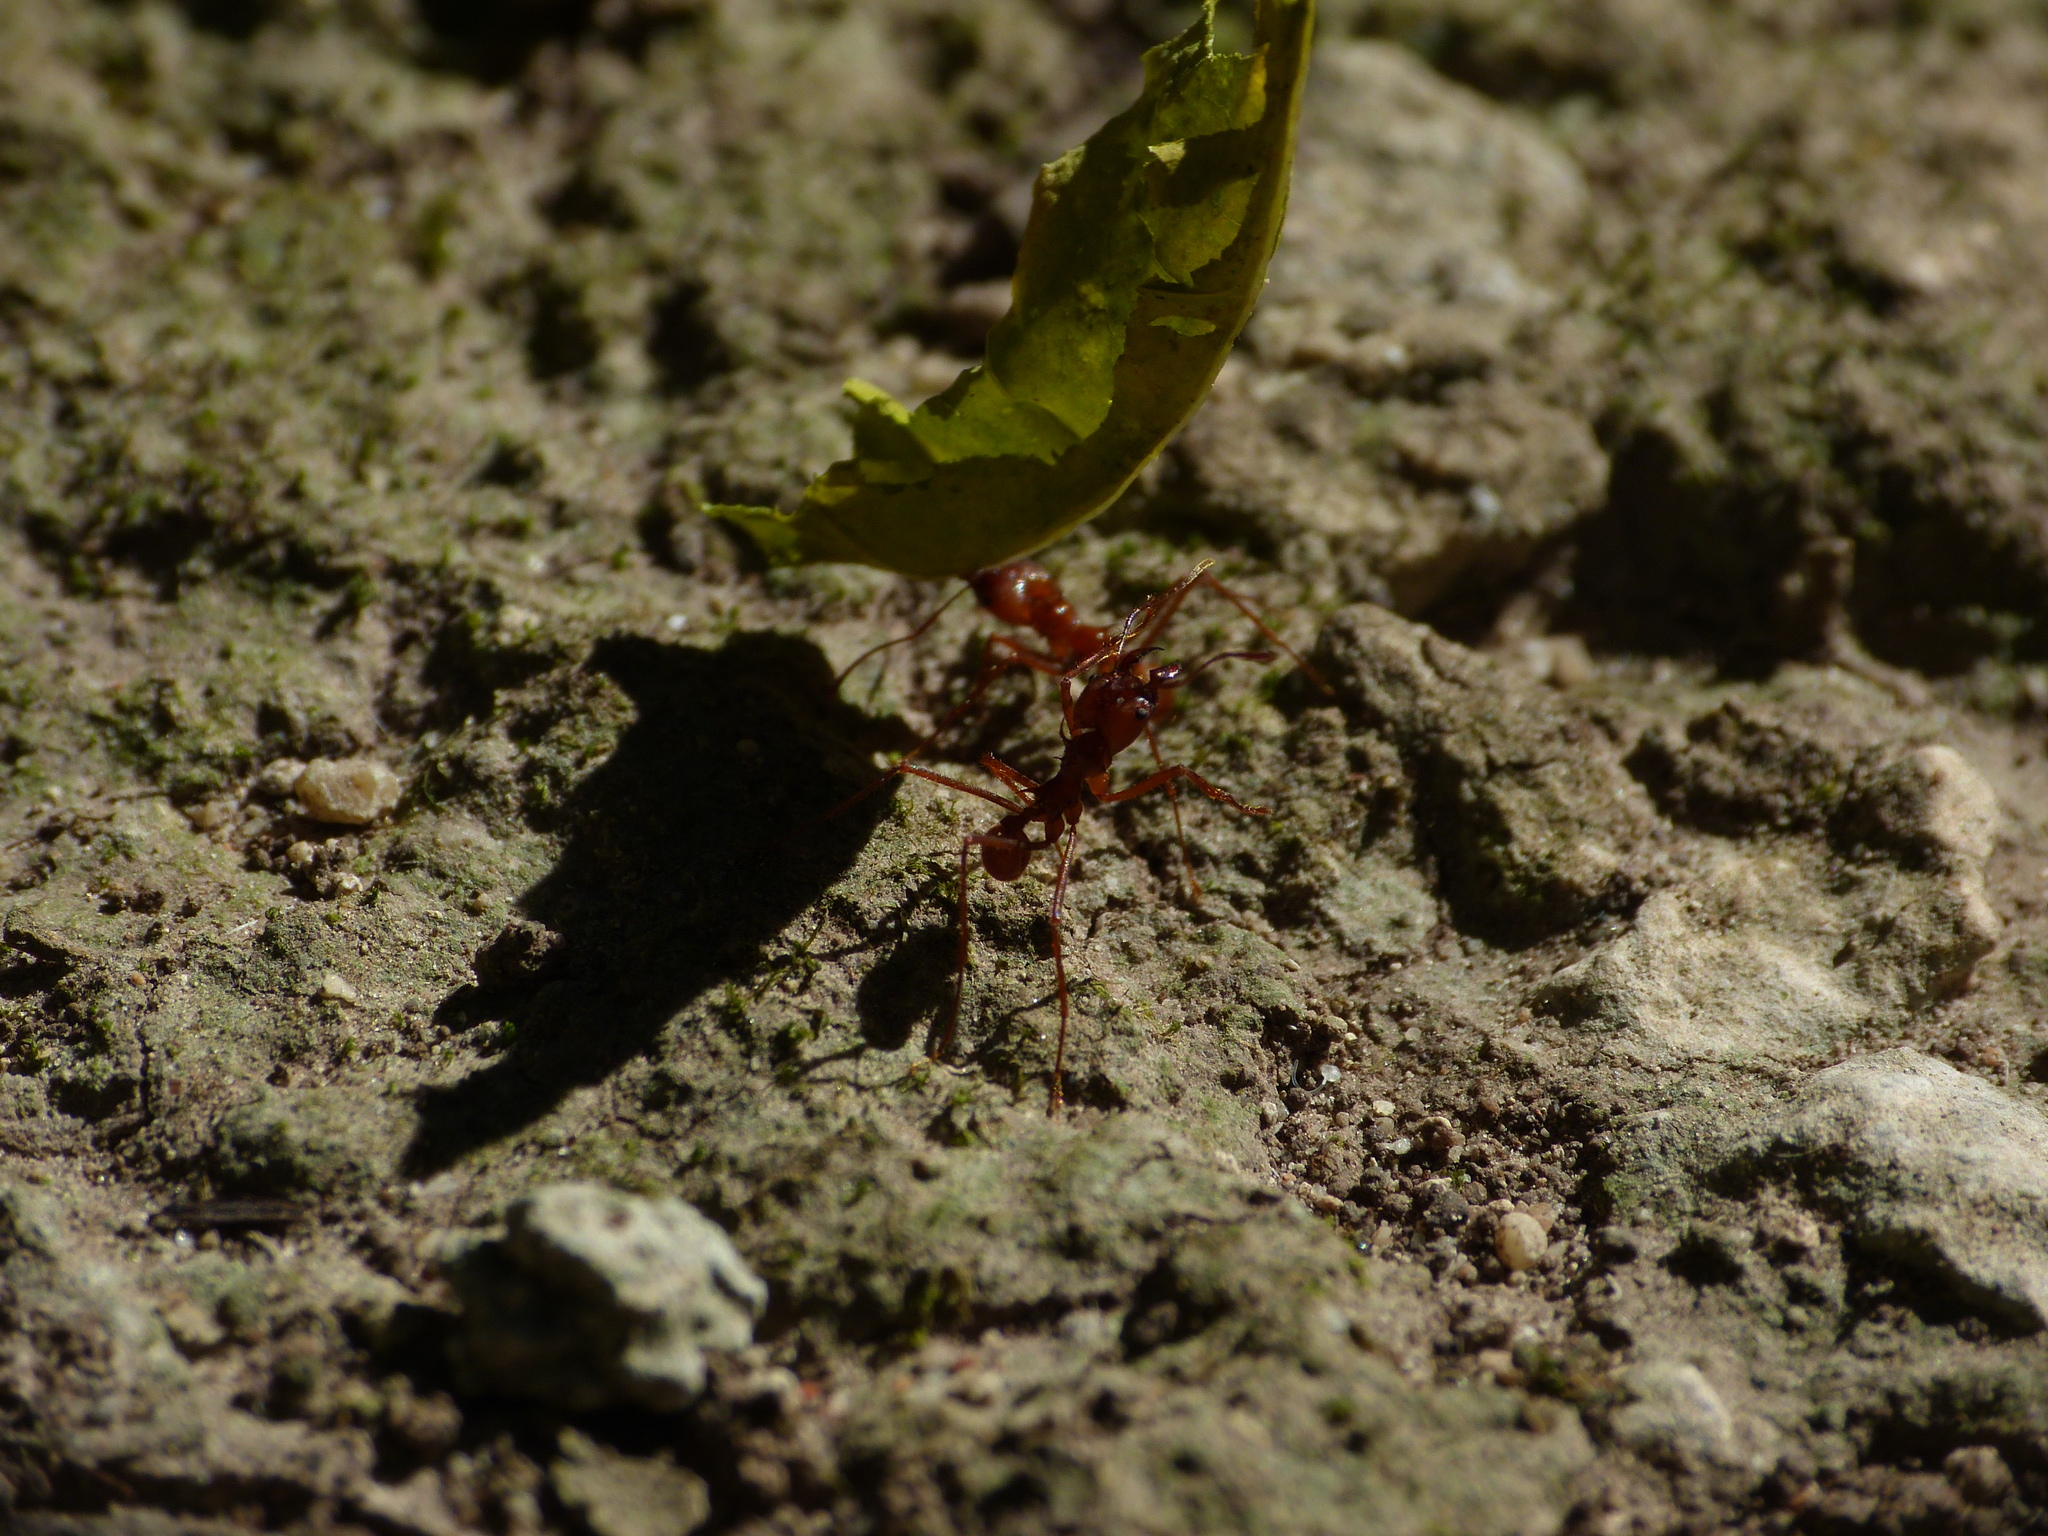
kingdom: Animalia
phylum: Arthropoda
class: Insecta
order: Hymenoptera
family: Formicidae
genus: Atta
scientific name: Atta cephalotes
